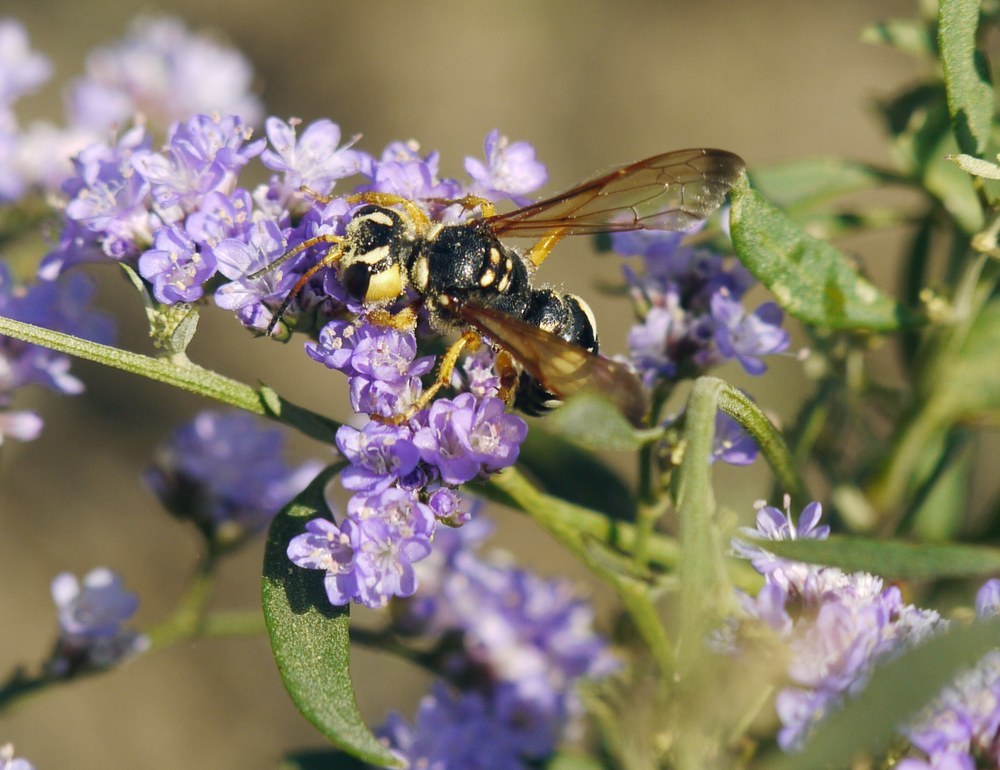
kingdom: Animalia
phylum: Arthropoda
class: Insecta
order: Hymenoptera
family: Crabronidae
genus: Cerceris
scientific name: Cerceris tuberculata
